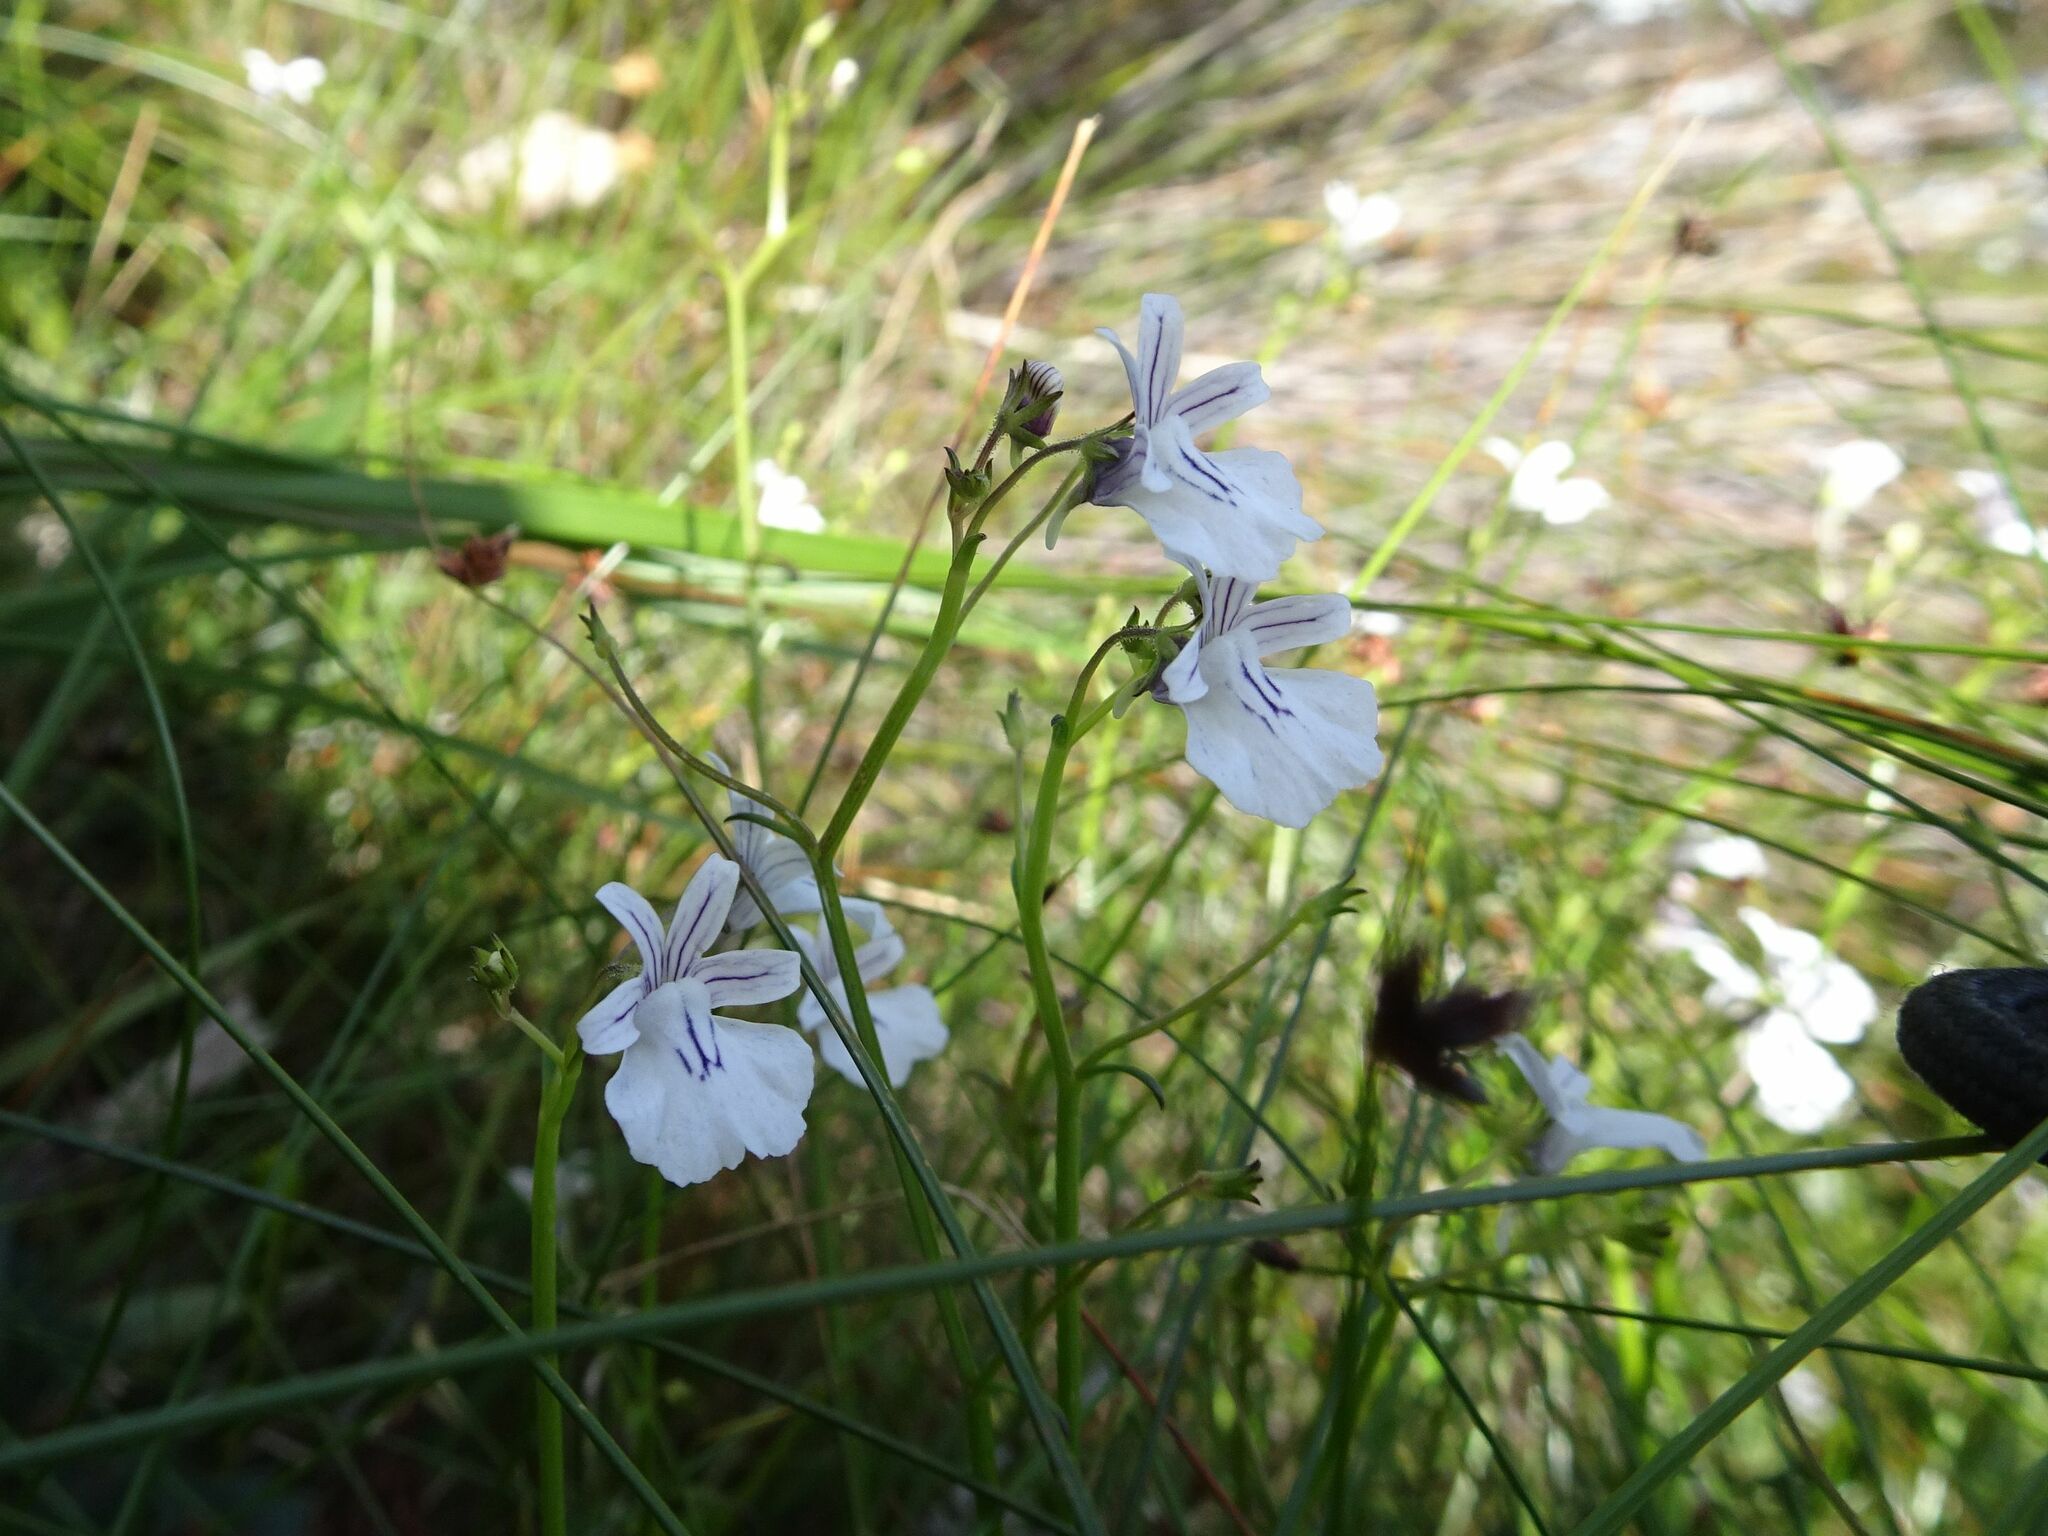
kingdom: Plantae
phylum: Tracheophyta
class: Magnoliopsida
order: Lamiales
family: Scrophulariaceae
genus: Nemesia
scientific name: Nemesia diffusa
